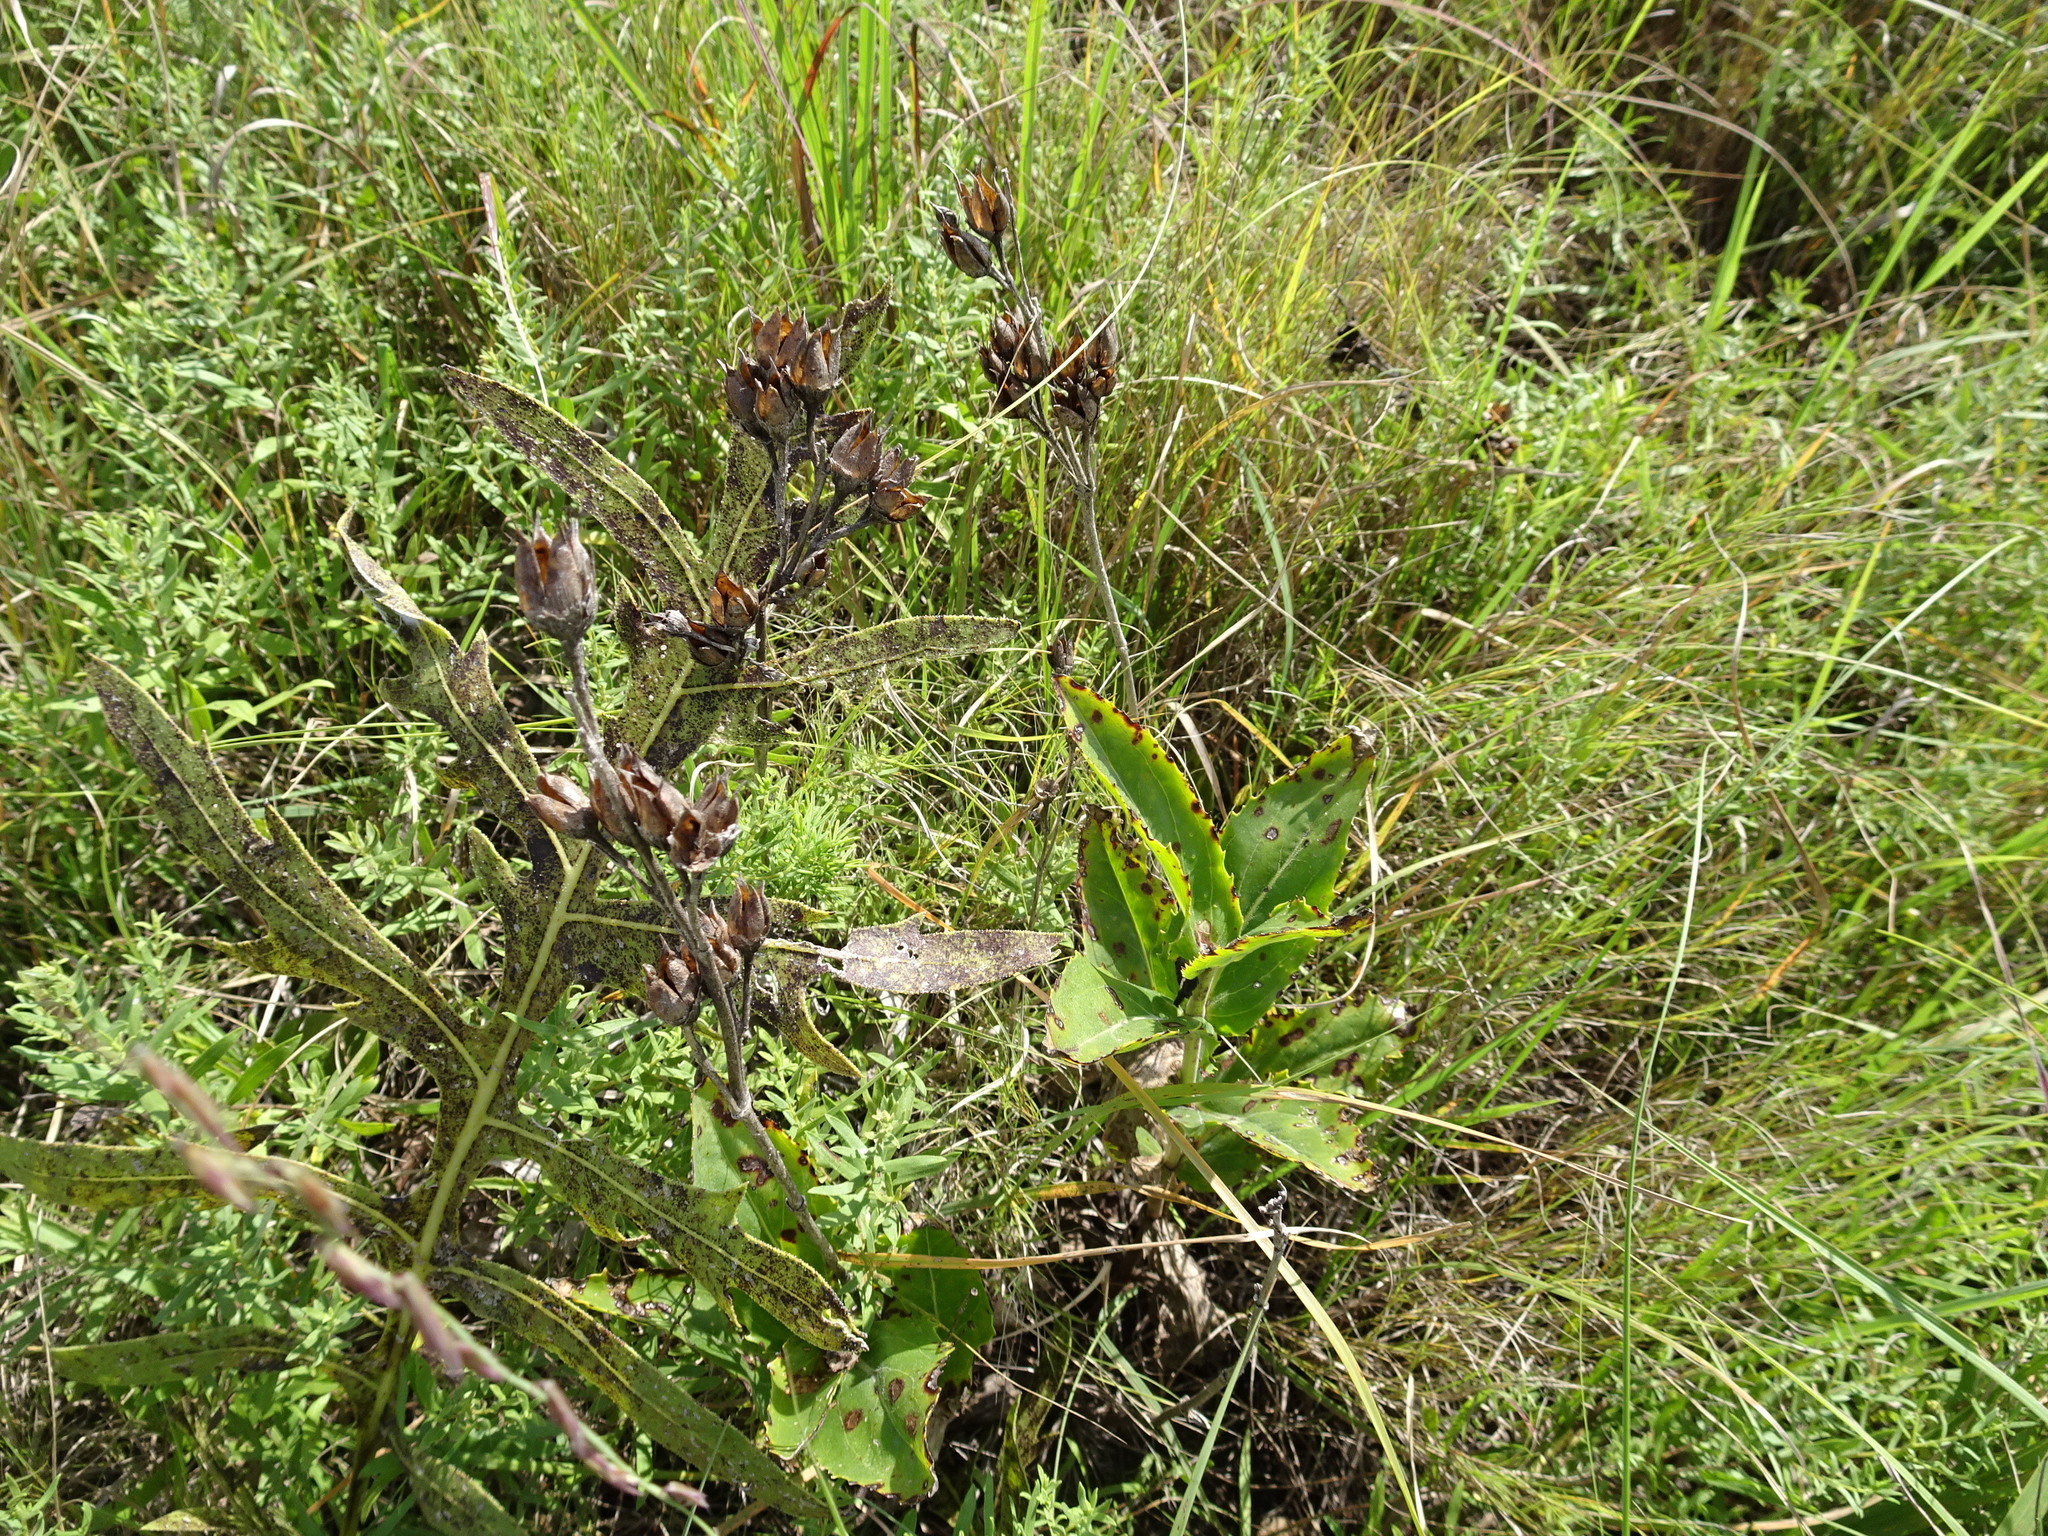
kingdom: Plantae
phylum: Tracheophyta
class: Magnoliopsida
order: Lamiales
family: Plantaginaceae
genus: Penstemon
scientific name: Penstemon cobaea
